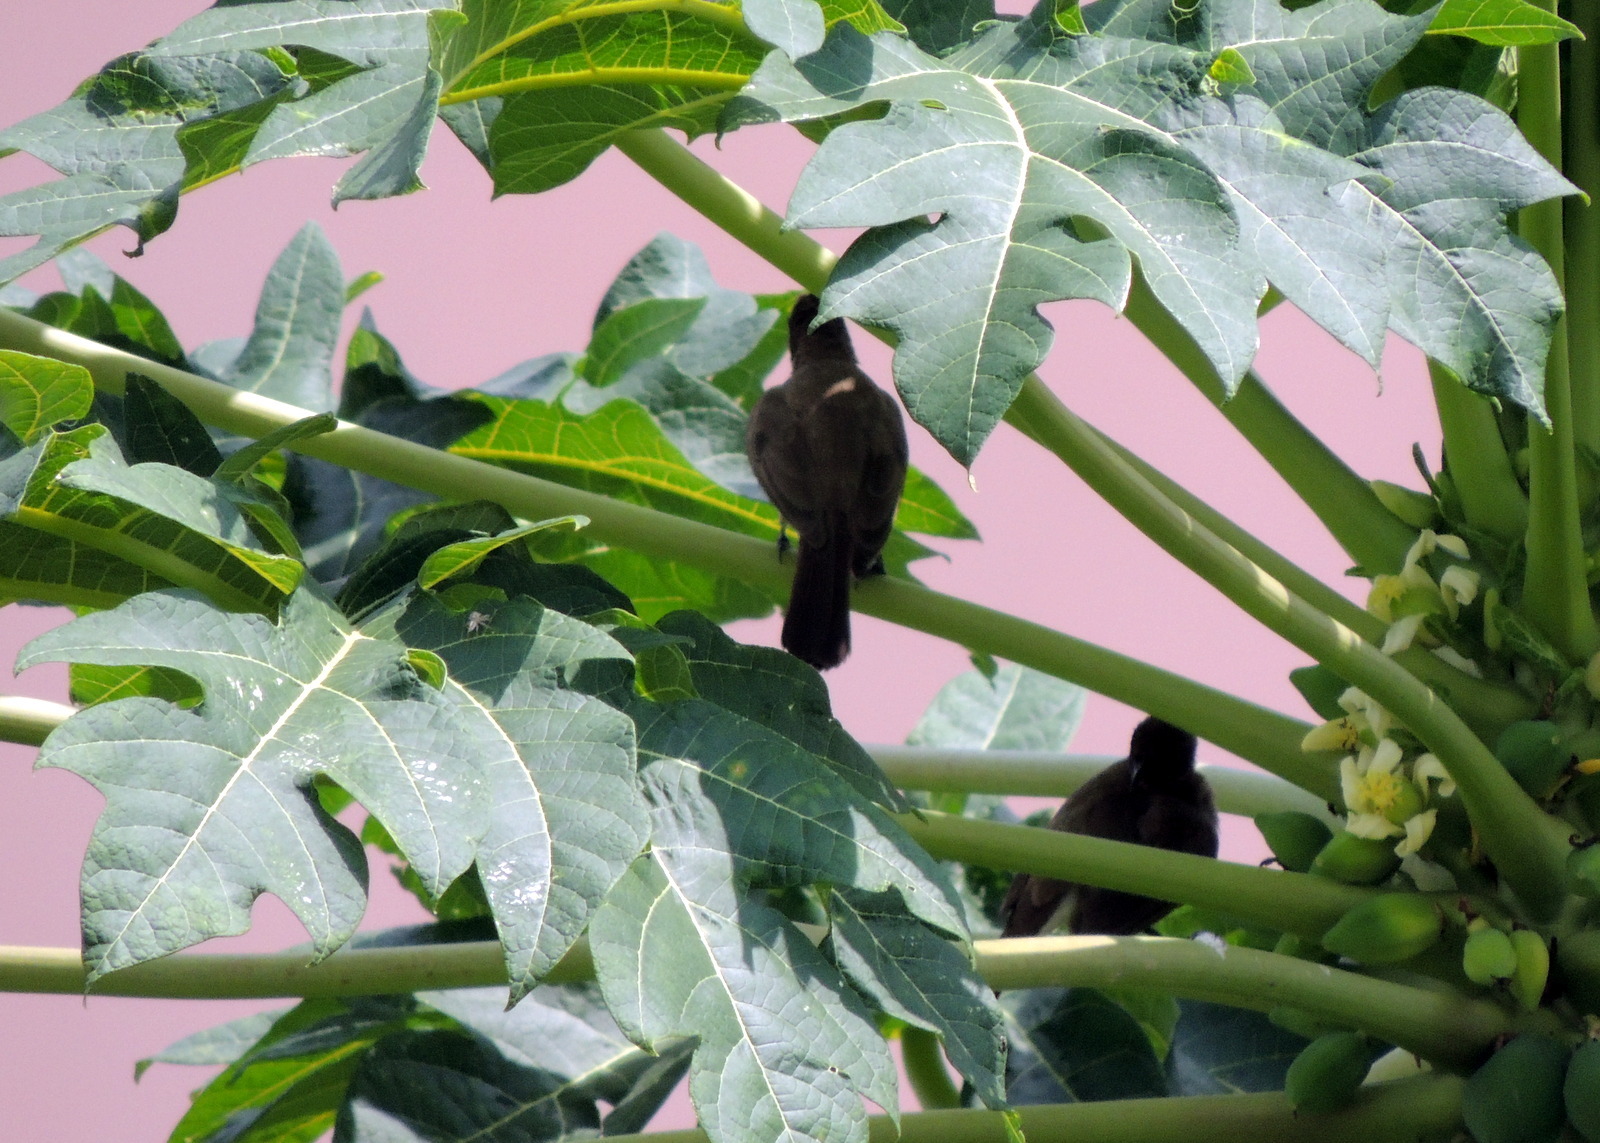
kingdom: Animalia
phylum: Chordata
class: Aves
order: Passeriformes
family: Pycnonotidae
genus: Pycnonotus
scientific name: Pycnonotus barbatus
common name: Common bulbul
